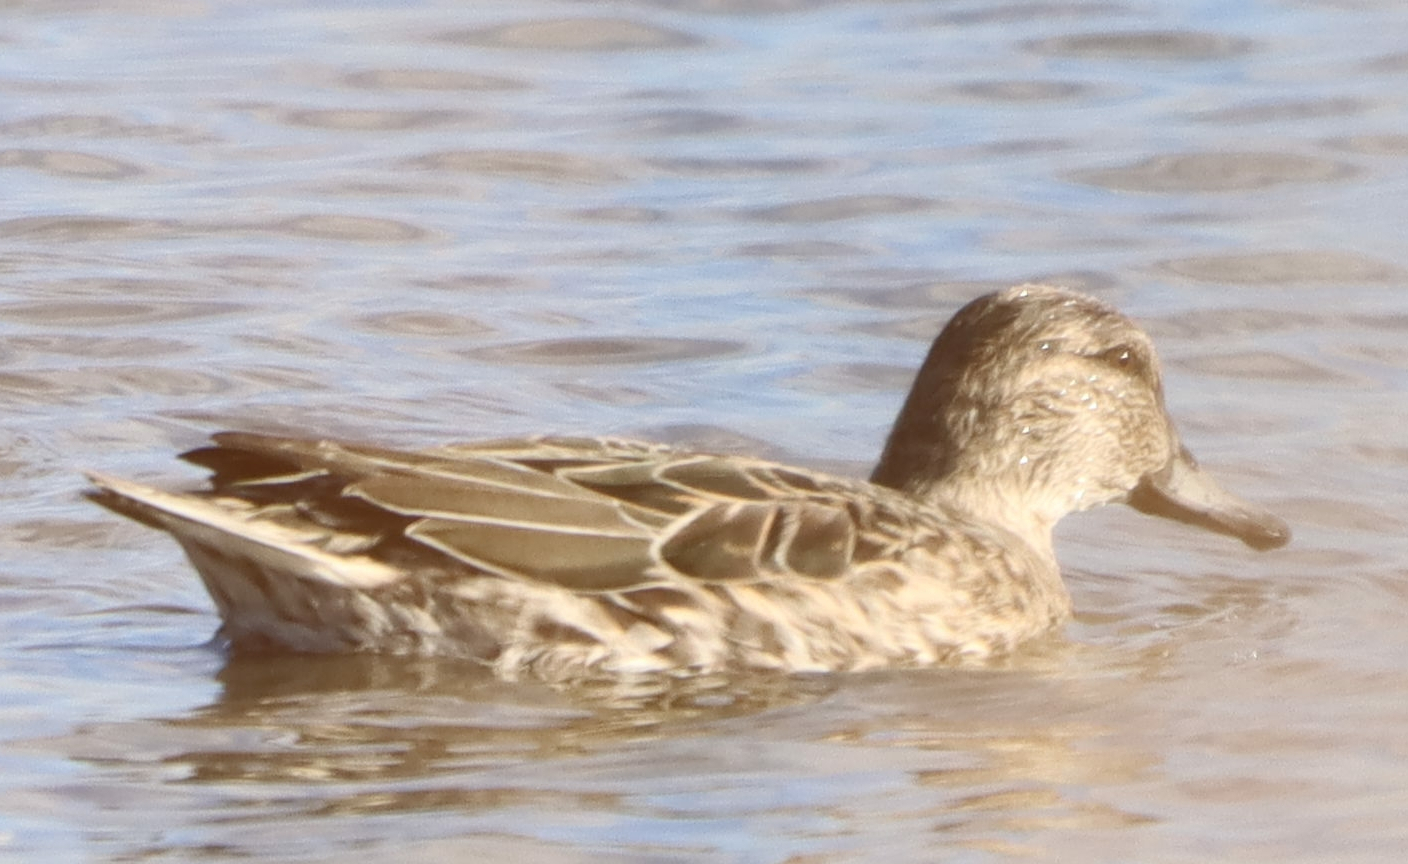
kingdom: Animalia
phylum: Chordata
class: Aves
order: Anseriformes
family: Anatidae
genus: Anas
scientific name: Anas crecca
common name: Eurasian teal
